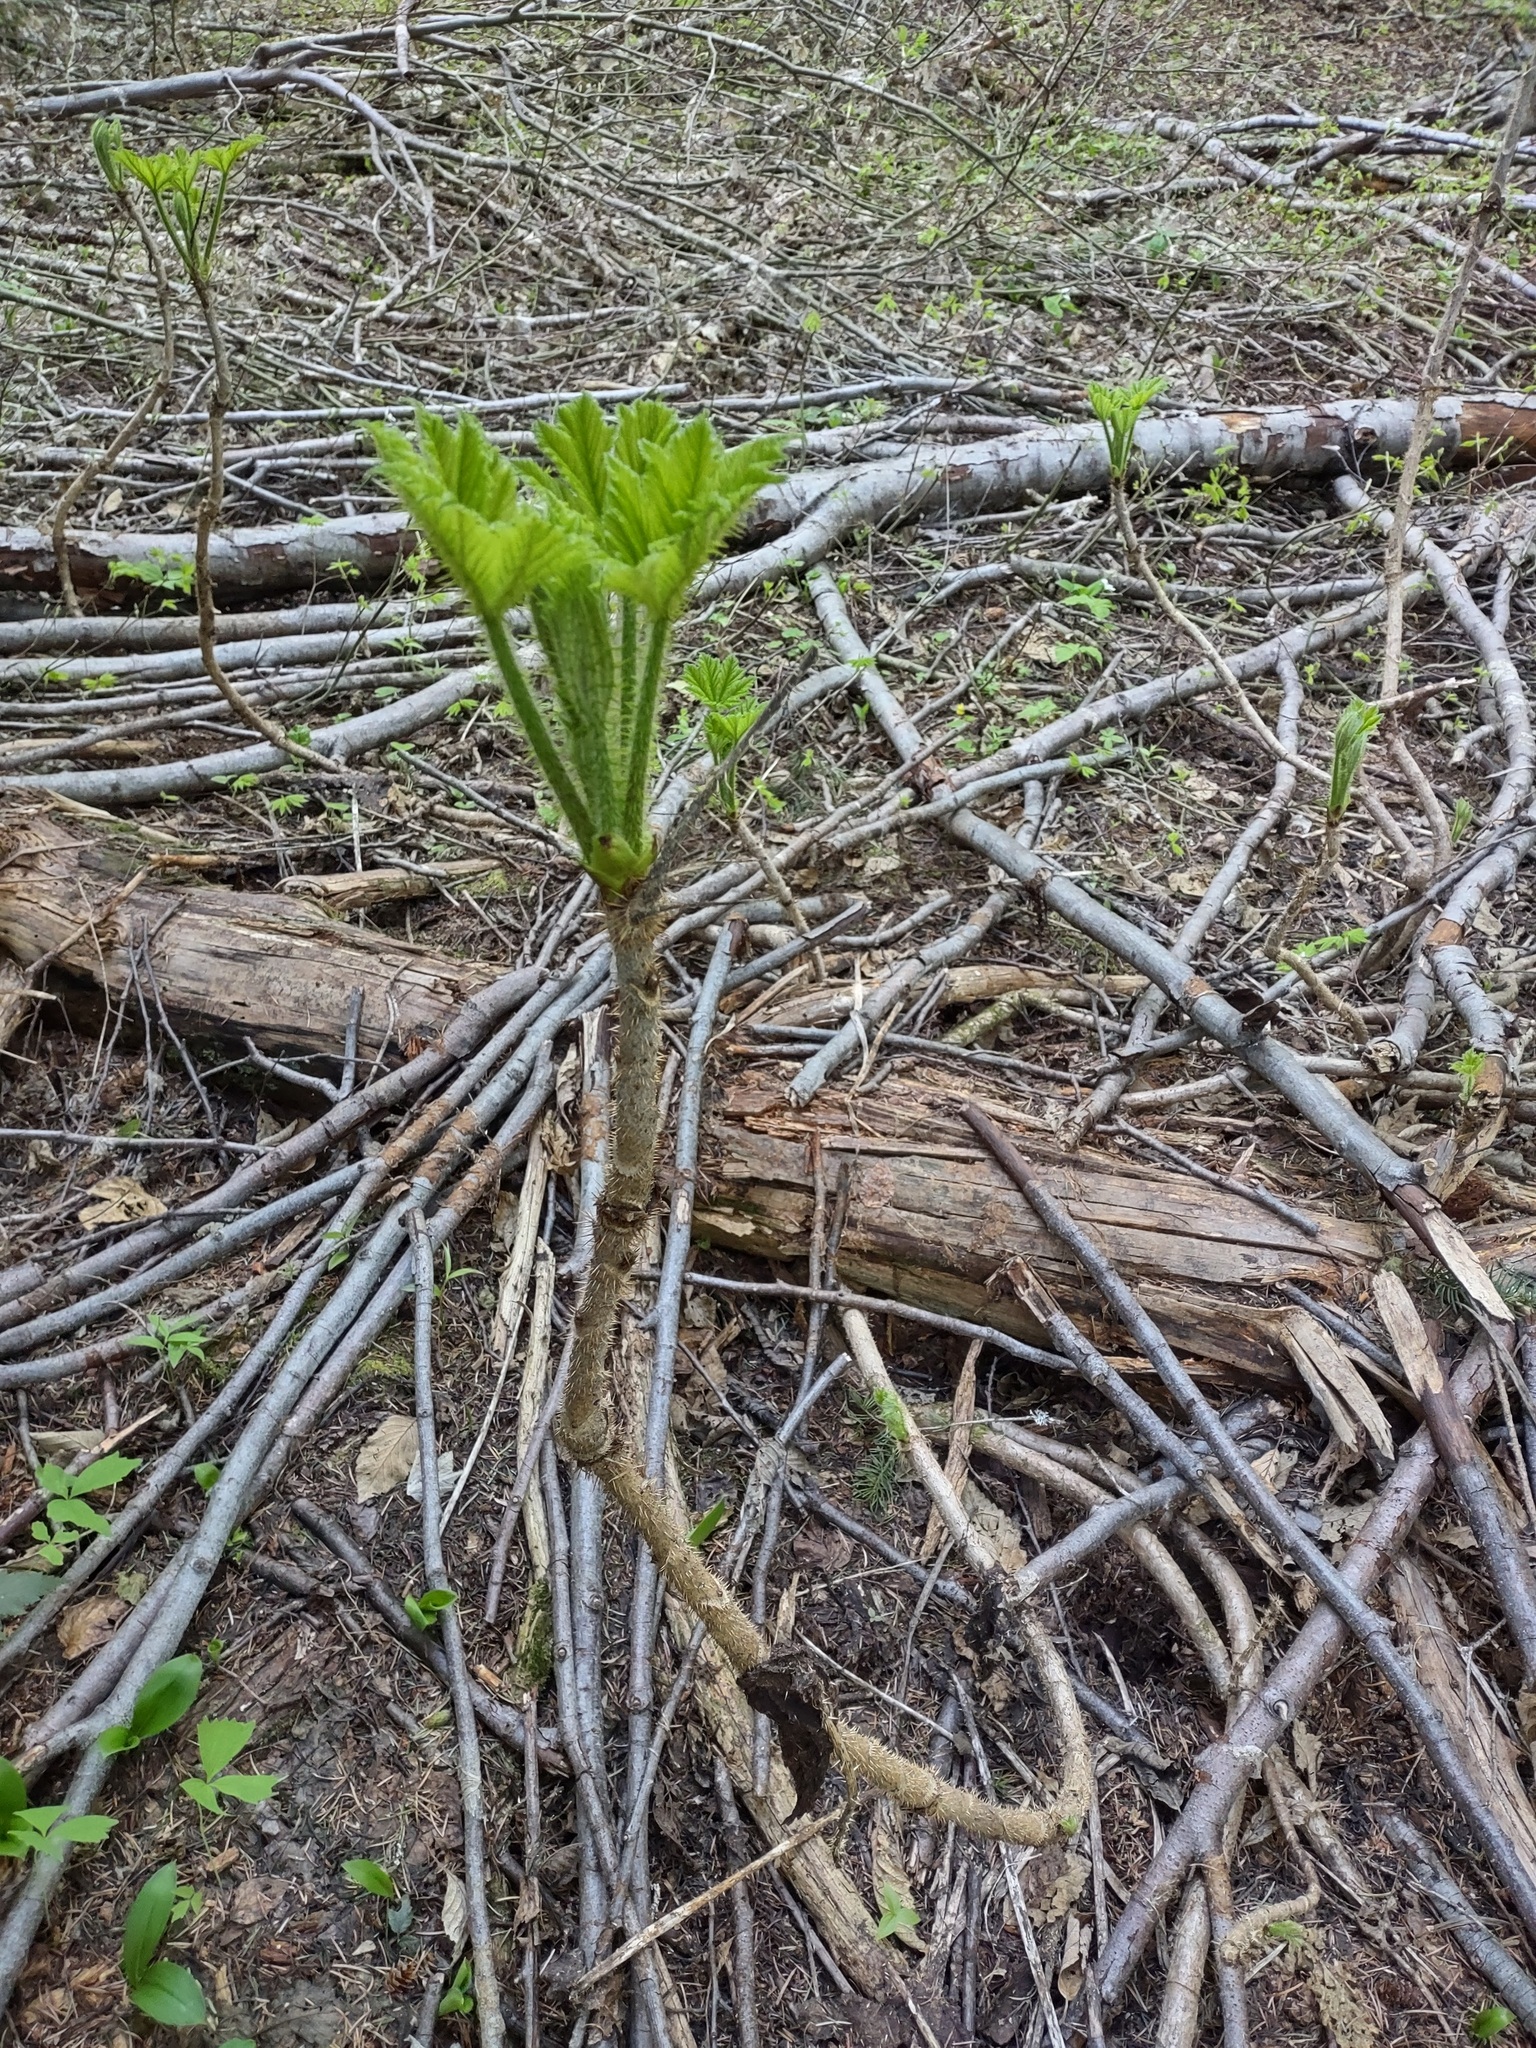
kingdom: Plantae
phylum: Tracheophyta
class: Magnoliopsida
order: Apiales
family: Araliaceae
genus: Oplopanax
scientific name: Oplopanax horridus
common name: Devil's walking-stick
